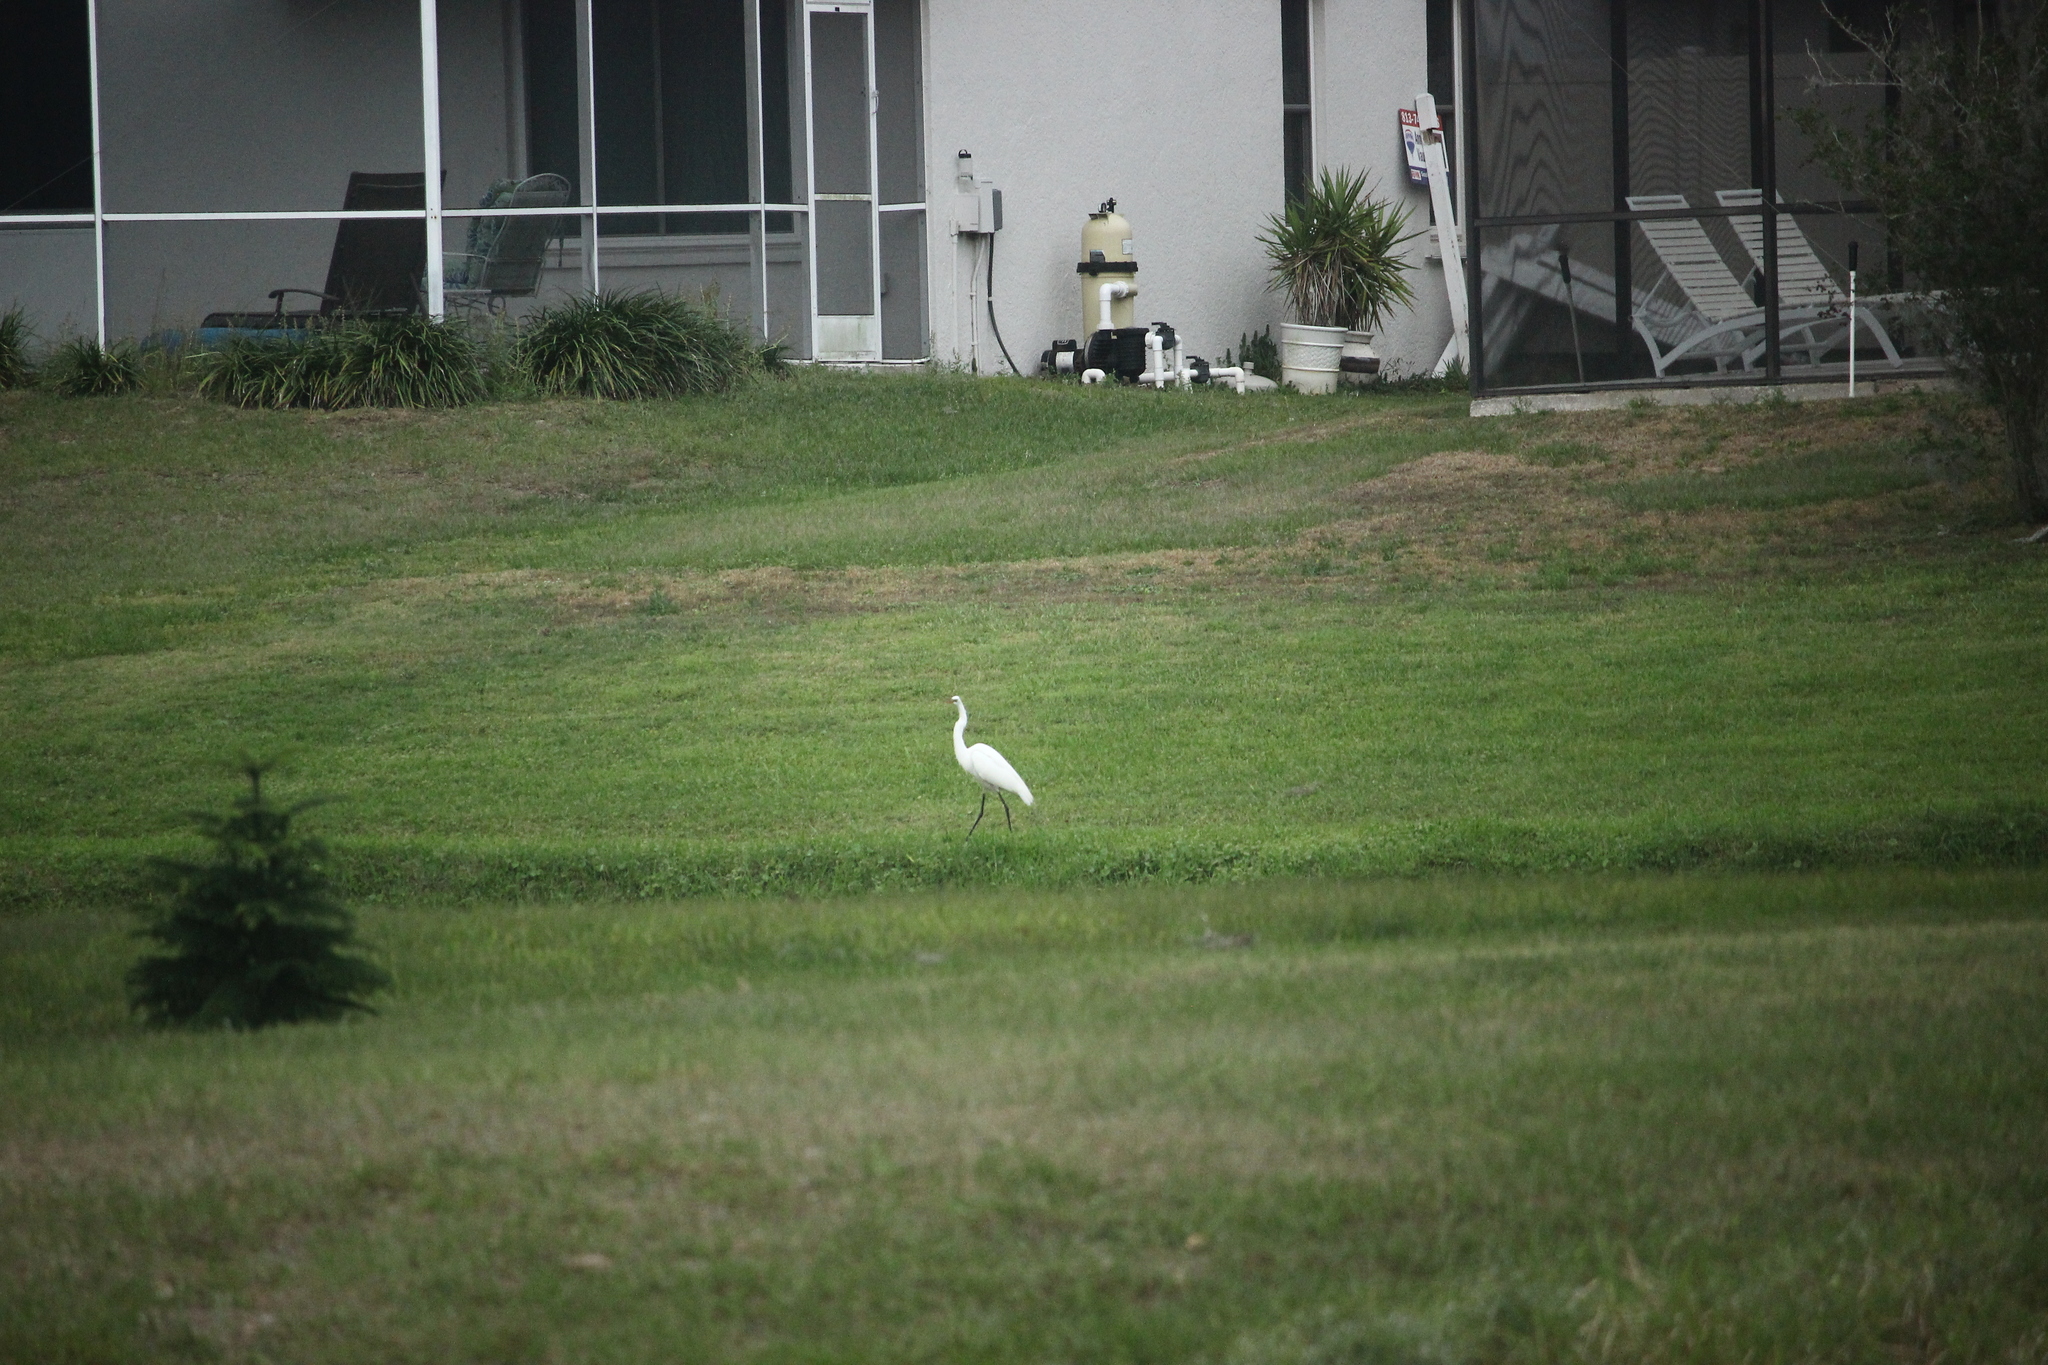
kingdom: Animalia
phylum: Chordata
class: Aves
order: Pelecaniformes
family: Ardeidae
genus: Ardea
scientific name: Ardea alba
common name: Great egret
